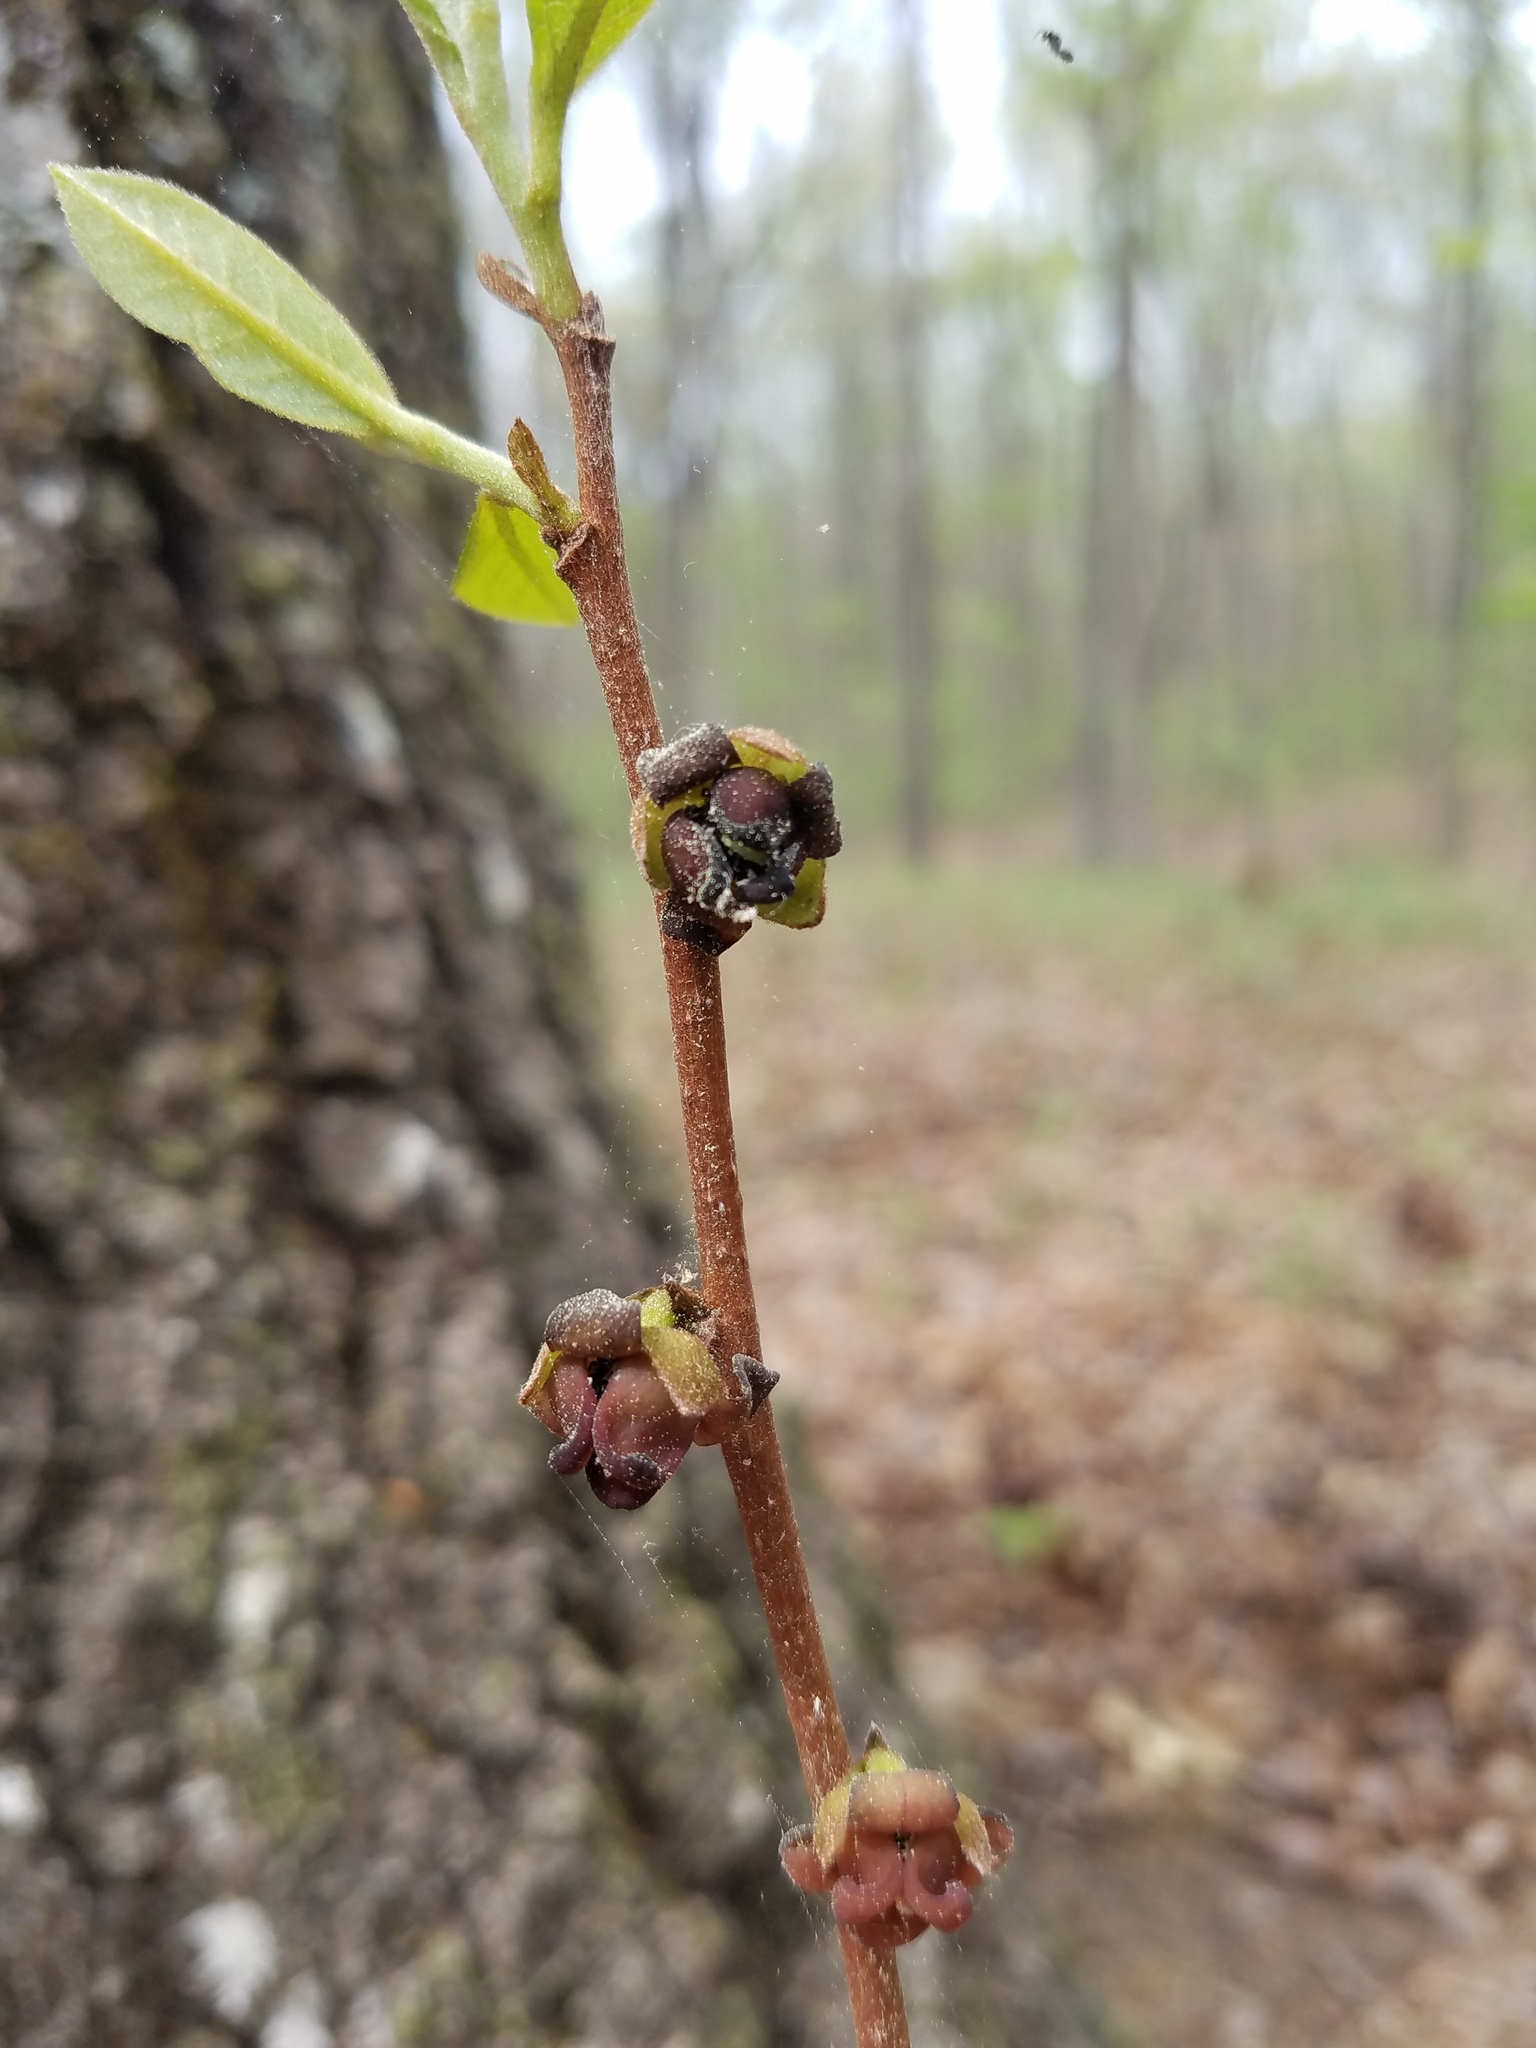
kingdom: Plantae
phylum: Tracheophyta
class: Magnoliopsida
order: Magnoliales
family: Annonaceae
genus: Asimina
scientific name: Asimina parviflora
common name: Dwarf pawpaw
